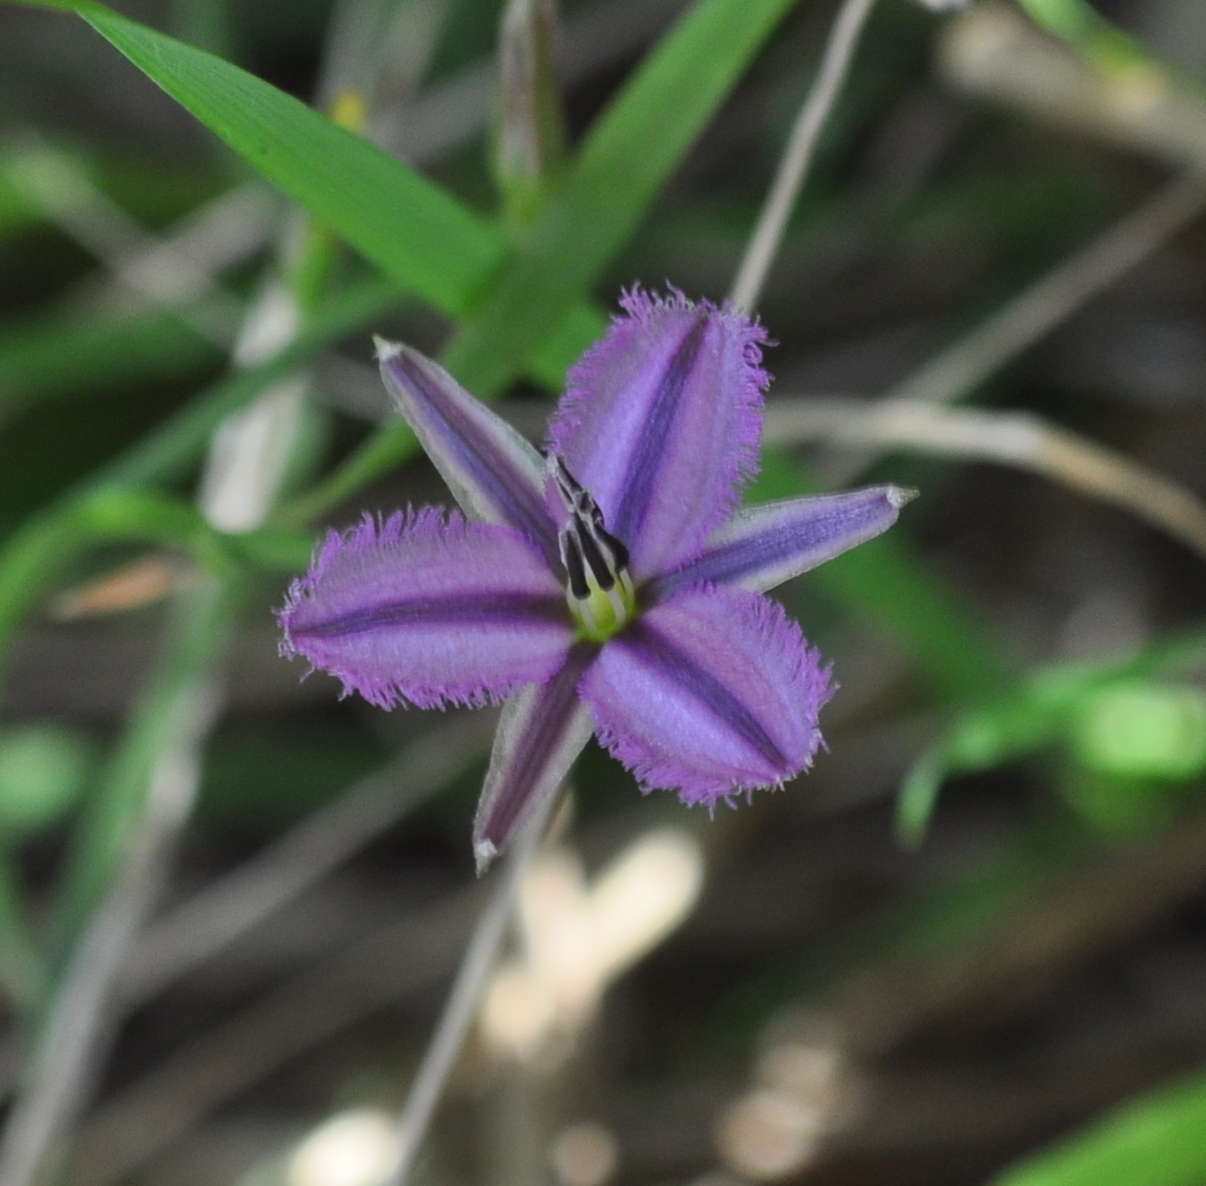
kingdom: Plantae
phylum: Tracheophyta
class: Liliopsida
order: Asparagales
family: Asparagaceae
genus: Thysanotus
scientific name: Thysanotus patersonii
